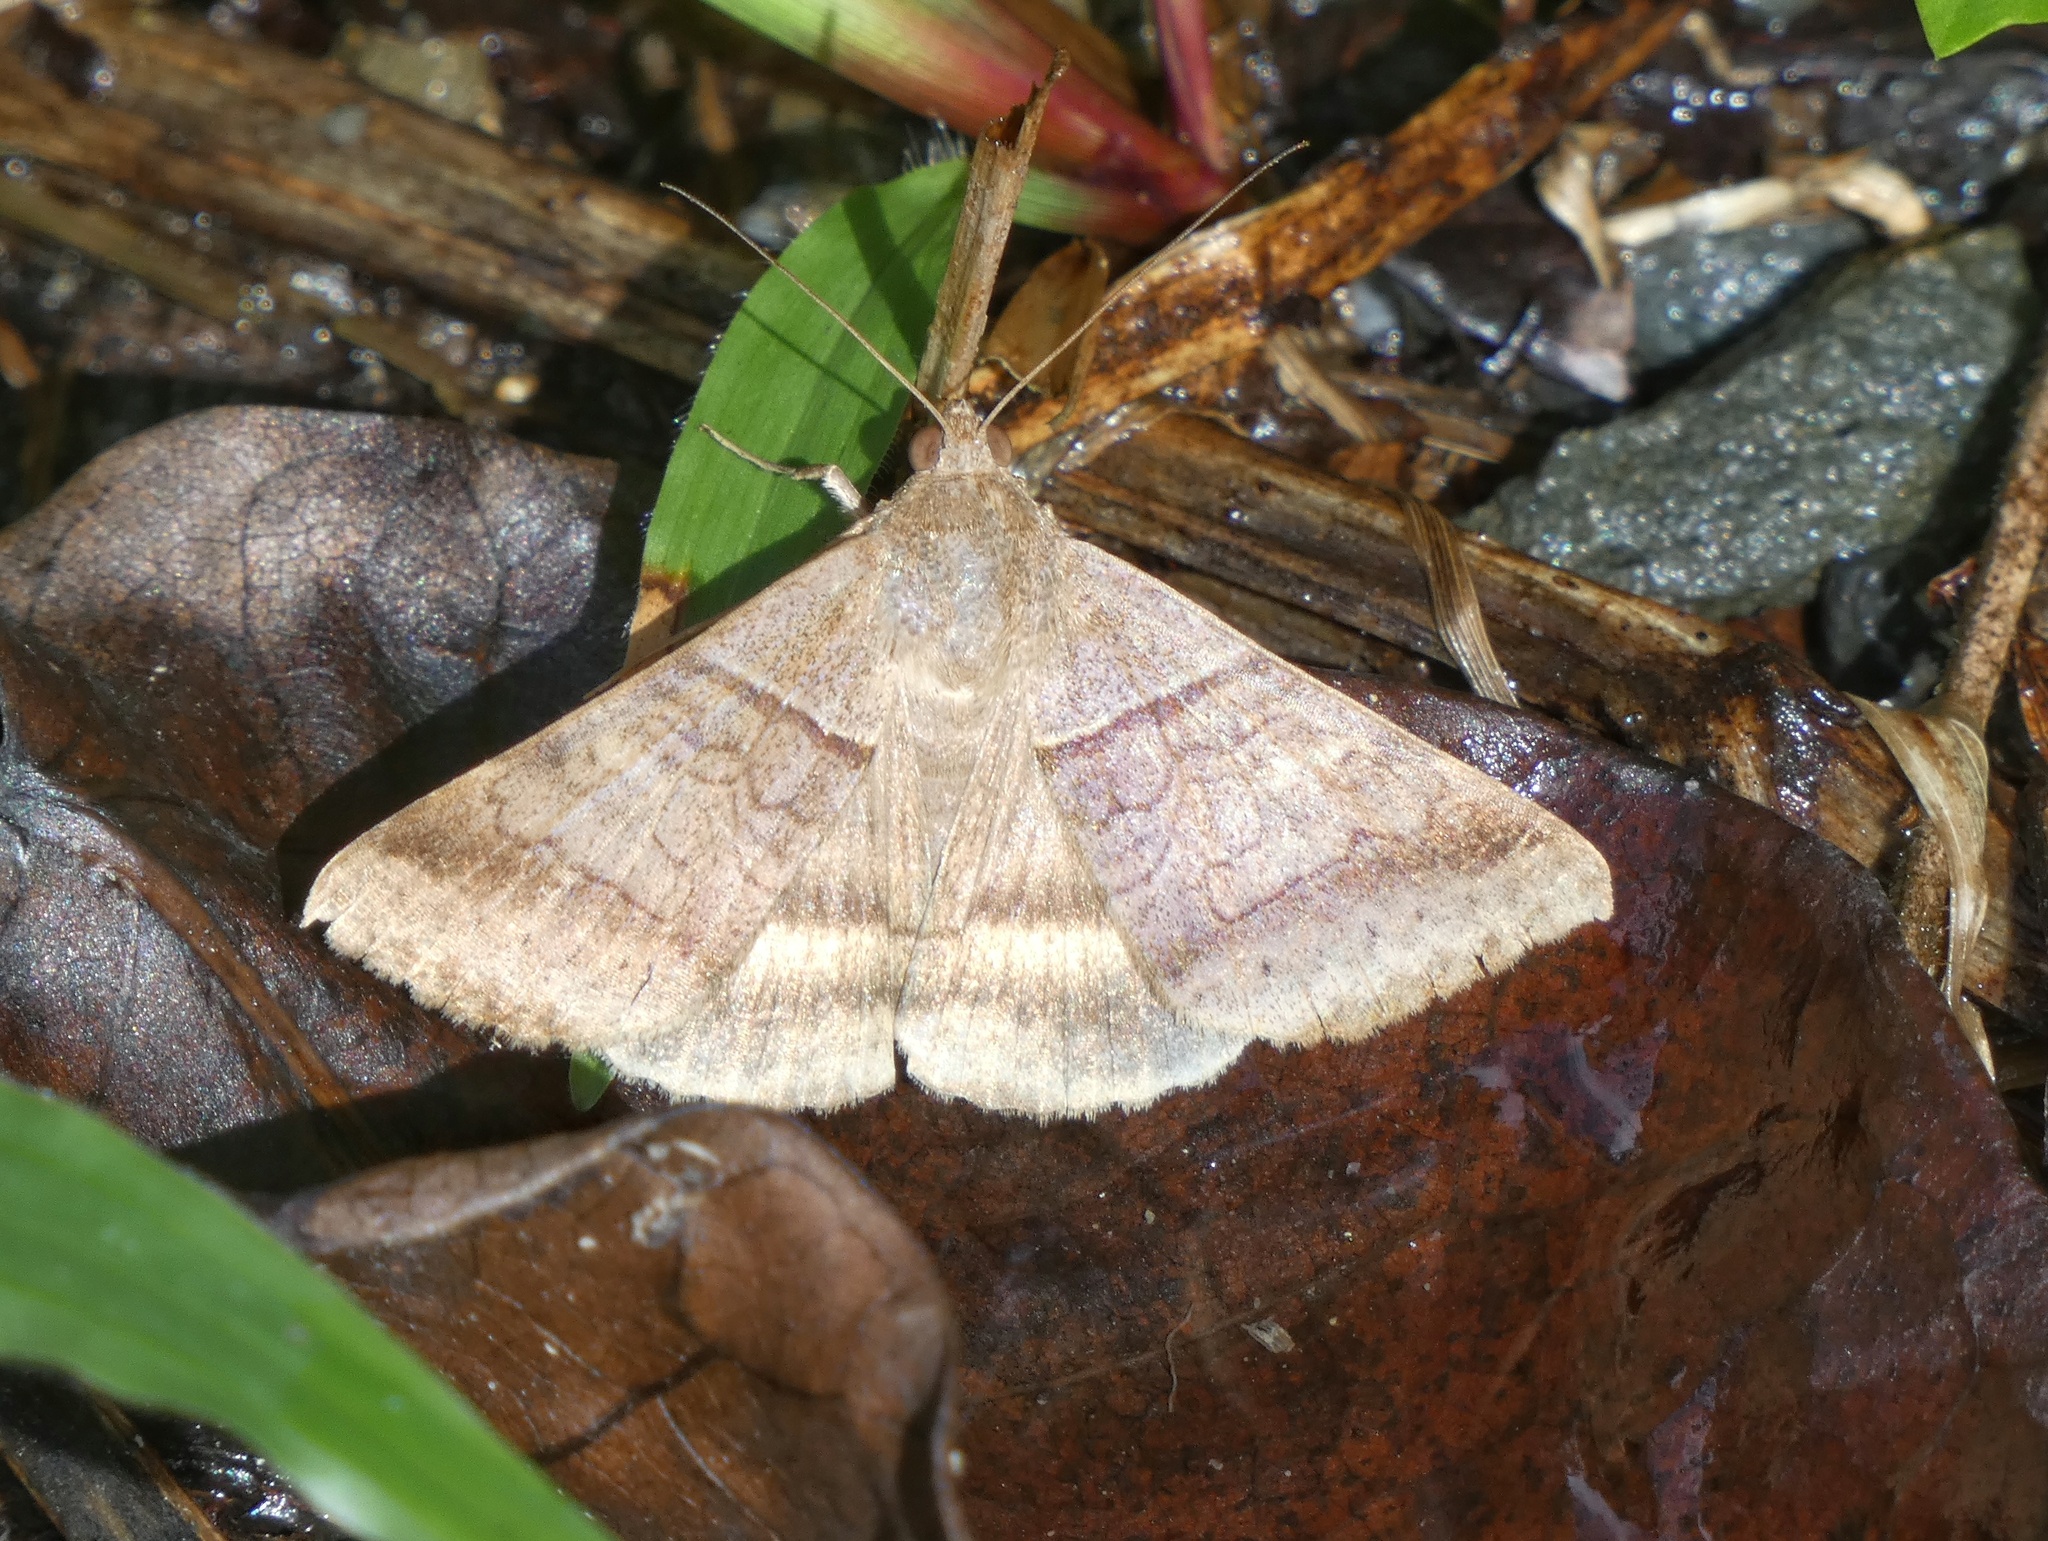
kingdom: Animalia
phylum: Arthropoda
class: Insecta
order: Lepidoptera
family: Erebidae
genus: Mocis
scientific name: Mocis trifasciata
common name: Triple-barred
